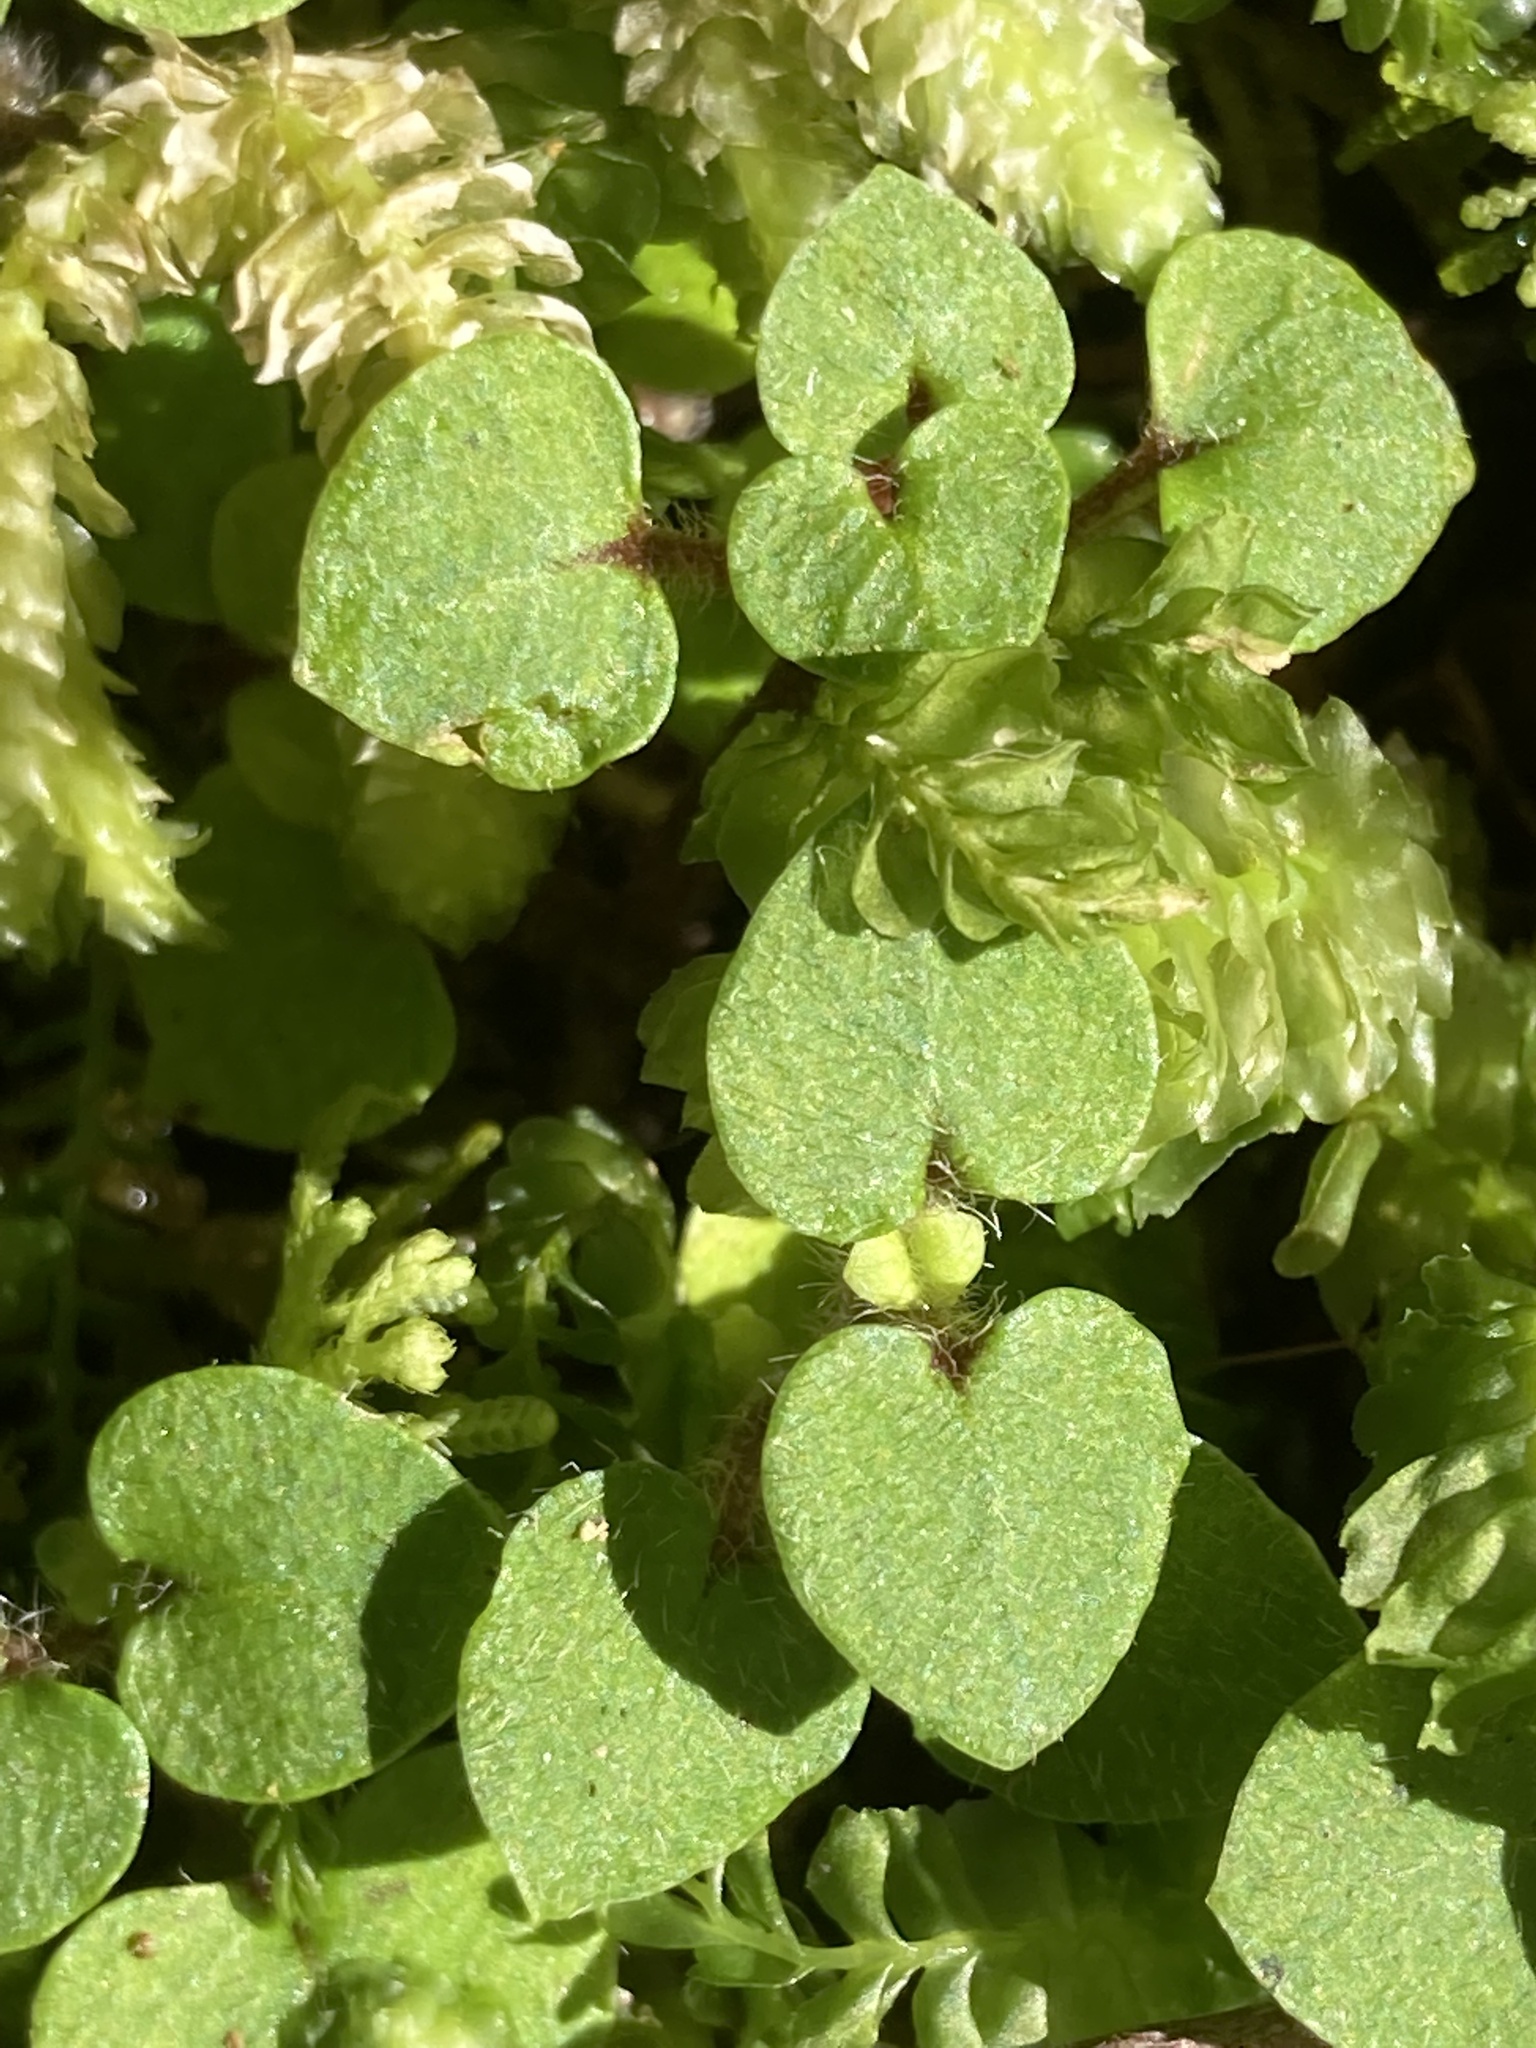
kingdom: Plantae
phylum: Tracheophyta
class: Magnoliopsida
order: Gentianales
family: Rubiaceae
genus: Nertera
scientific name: Nertera villosa
